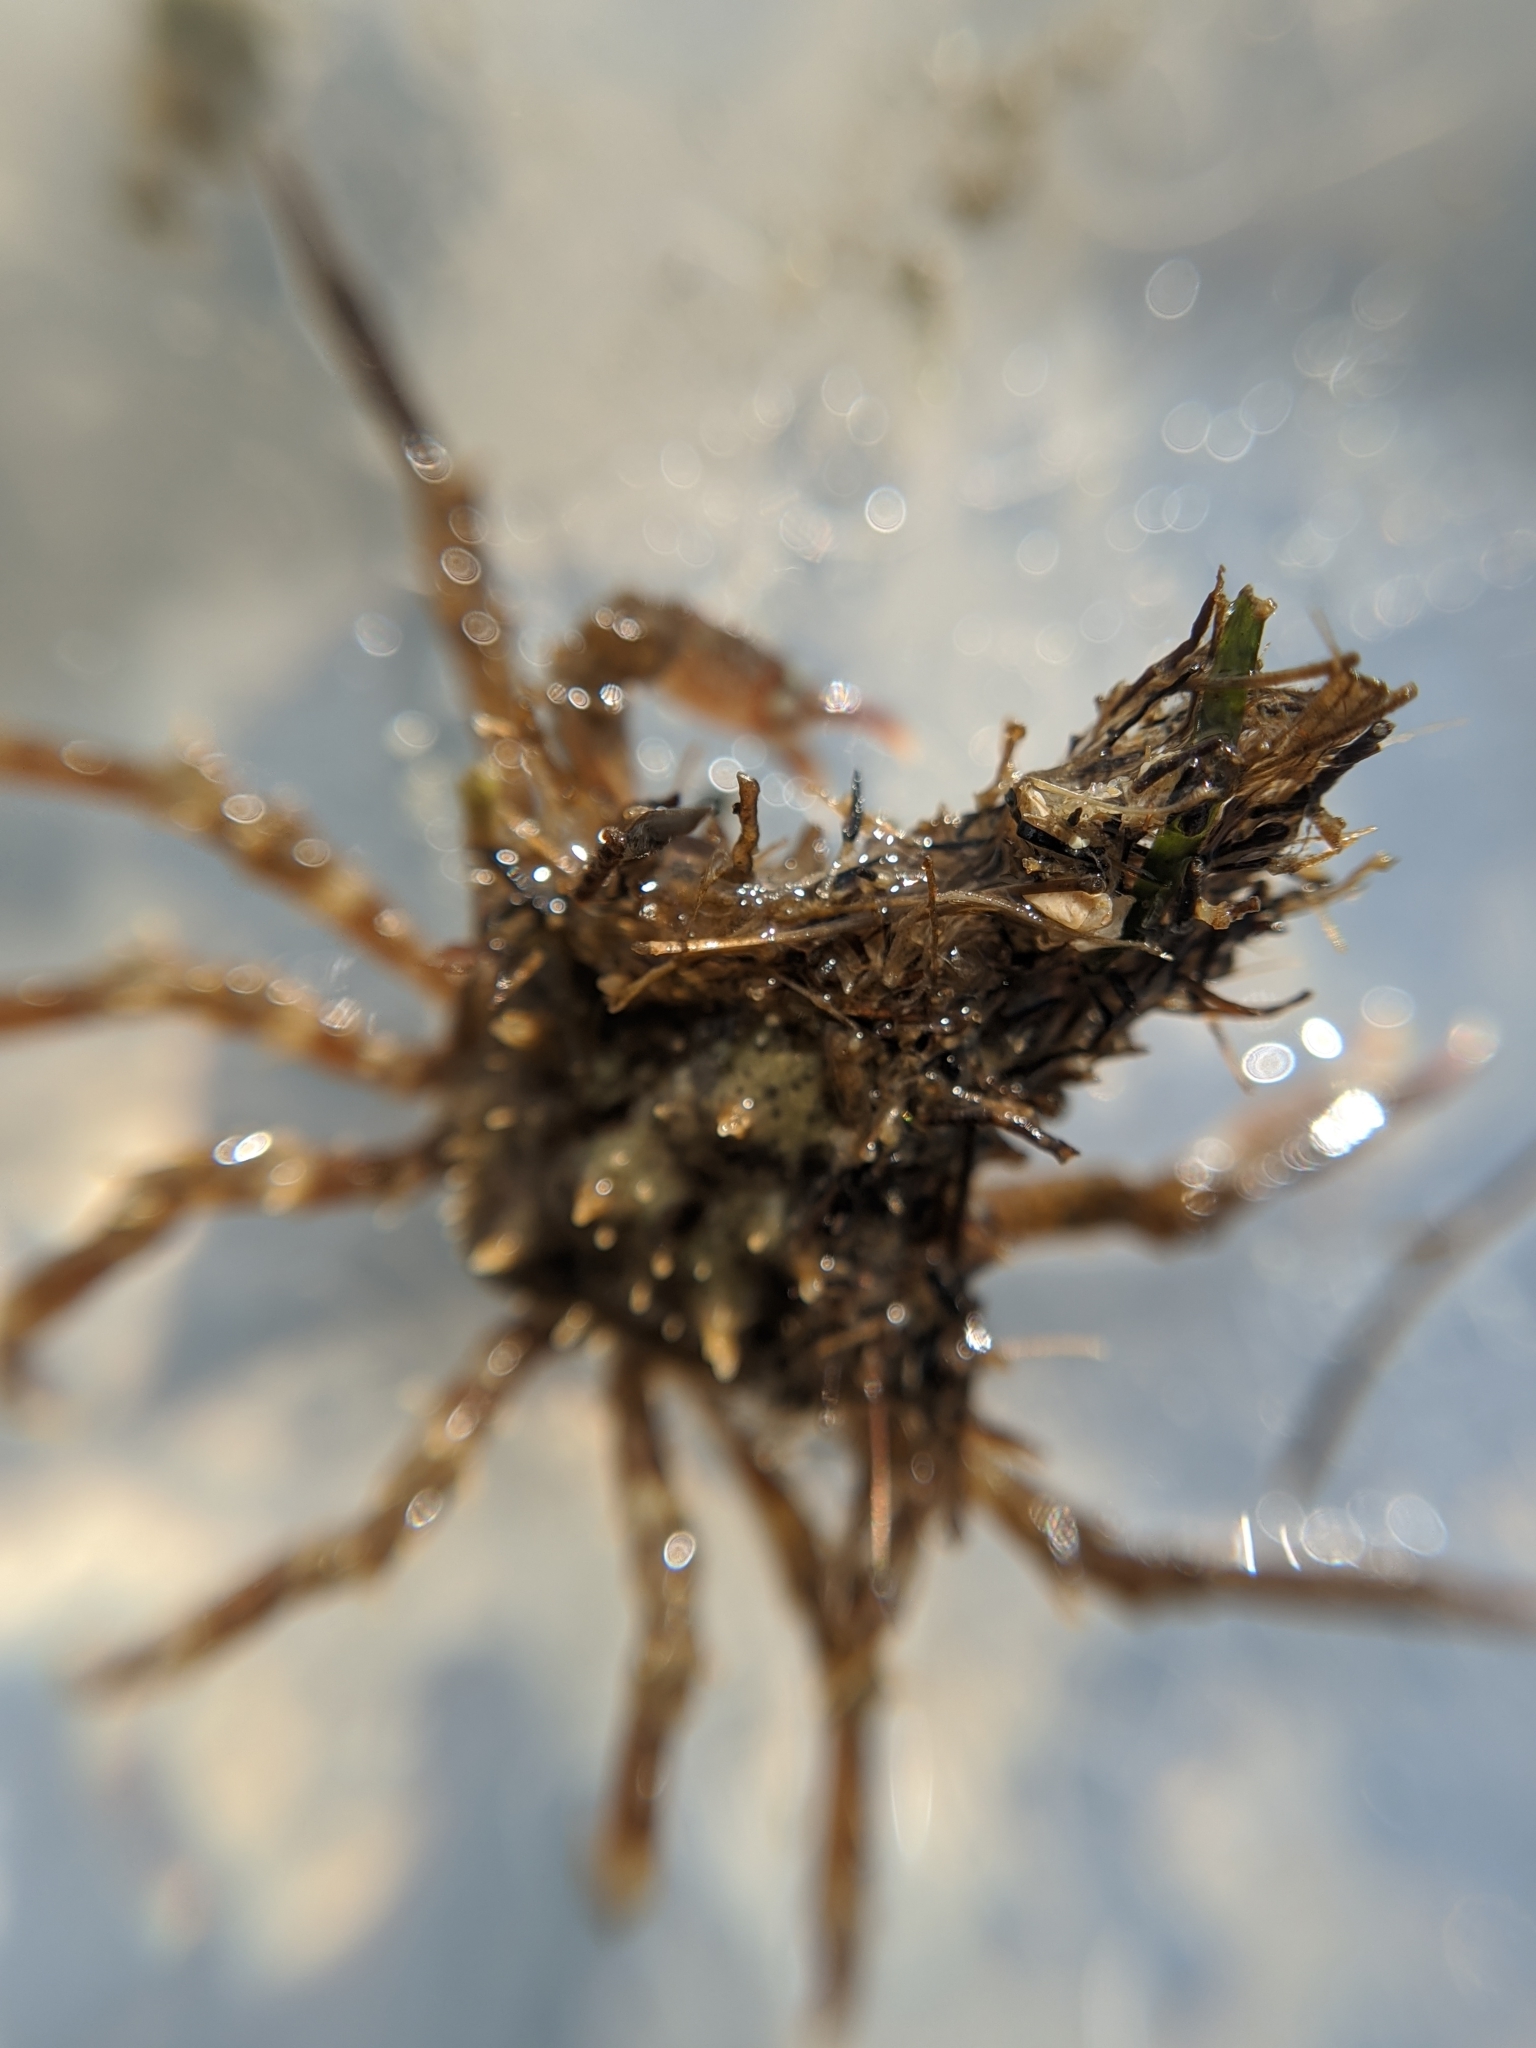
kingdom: Animalia
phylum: Arthropoda
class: Malacostraca
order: Decapoda
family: Epialtidae
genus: Pugettia
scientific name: Pugettia richii
